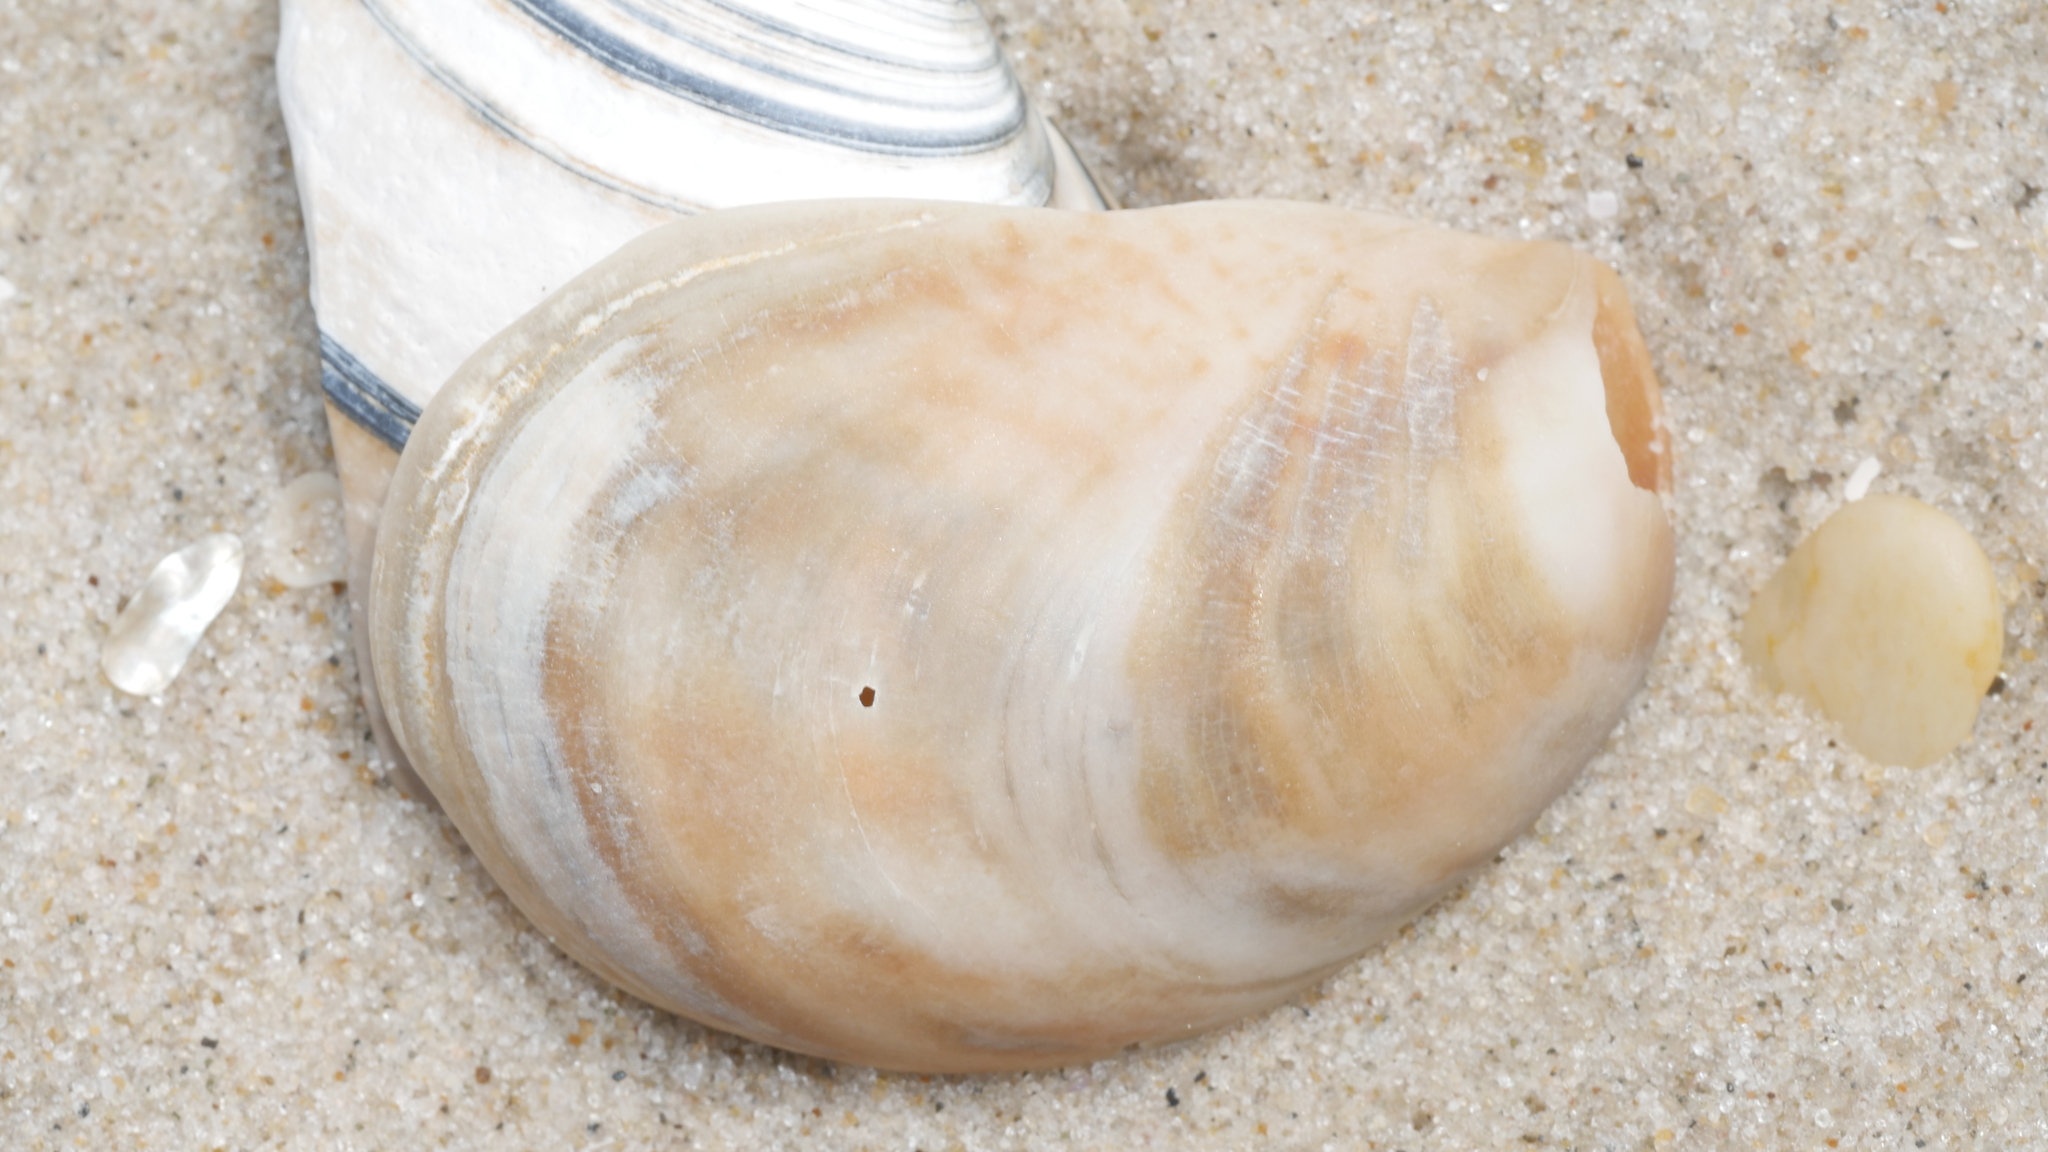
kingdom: Animalia
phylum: Mollusca
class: Gastropoda
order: Littorinimorpha
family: Calyptraeidae
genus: Crepidula
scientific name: Crepidula fornicata
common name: Slipper limpet
